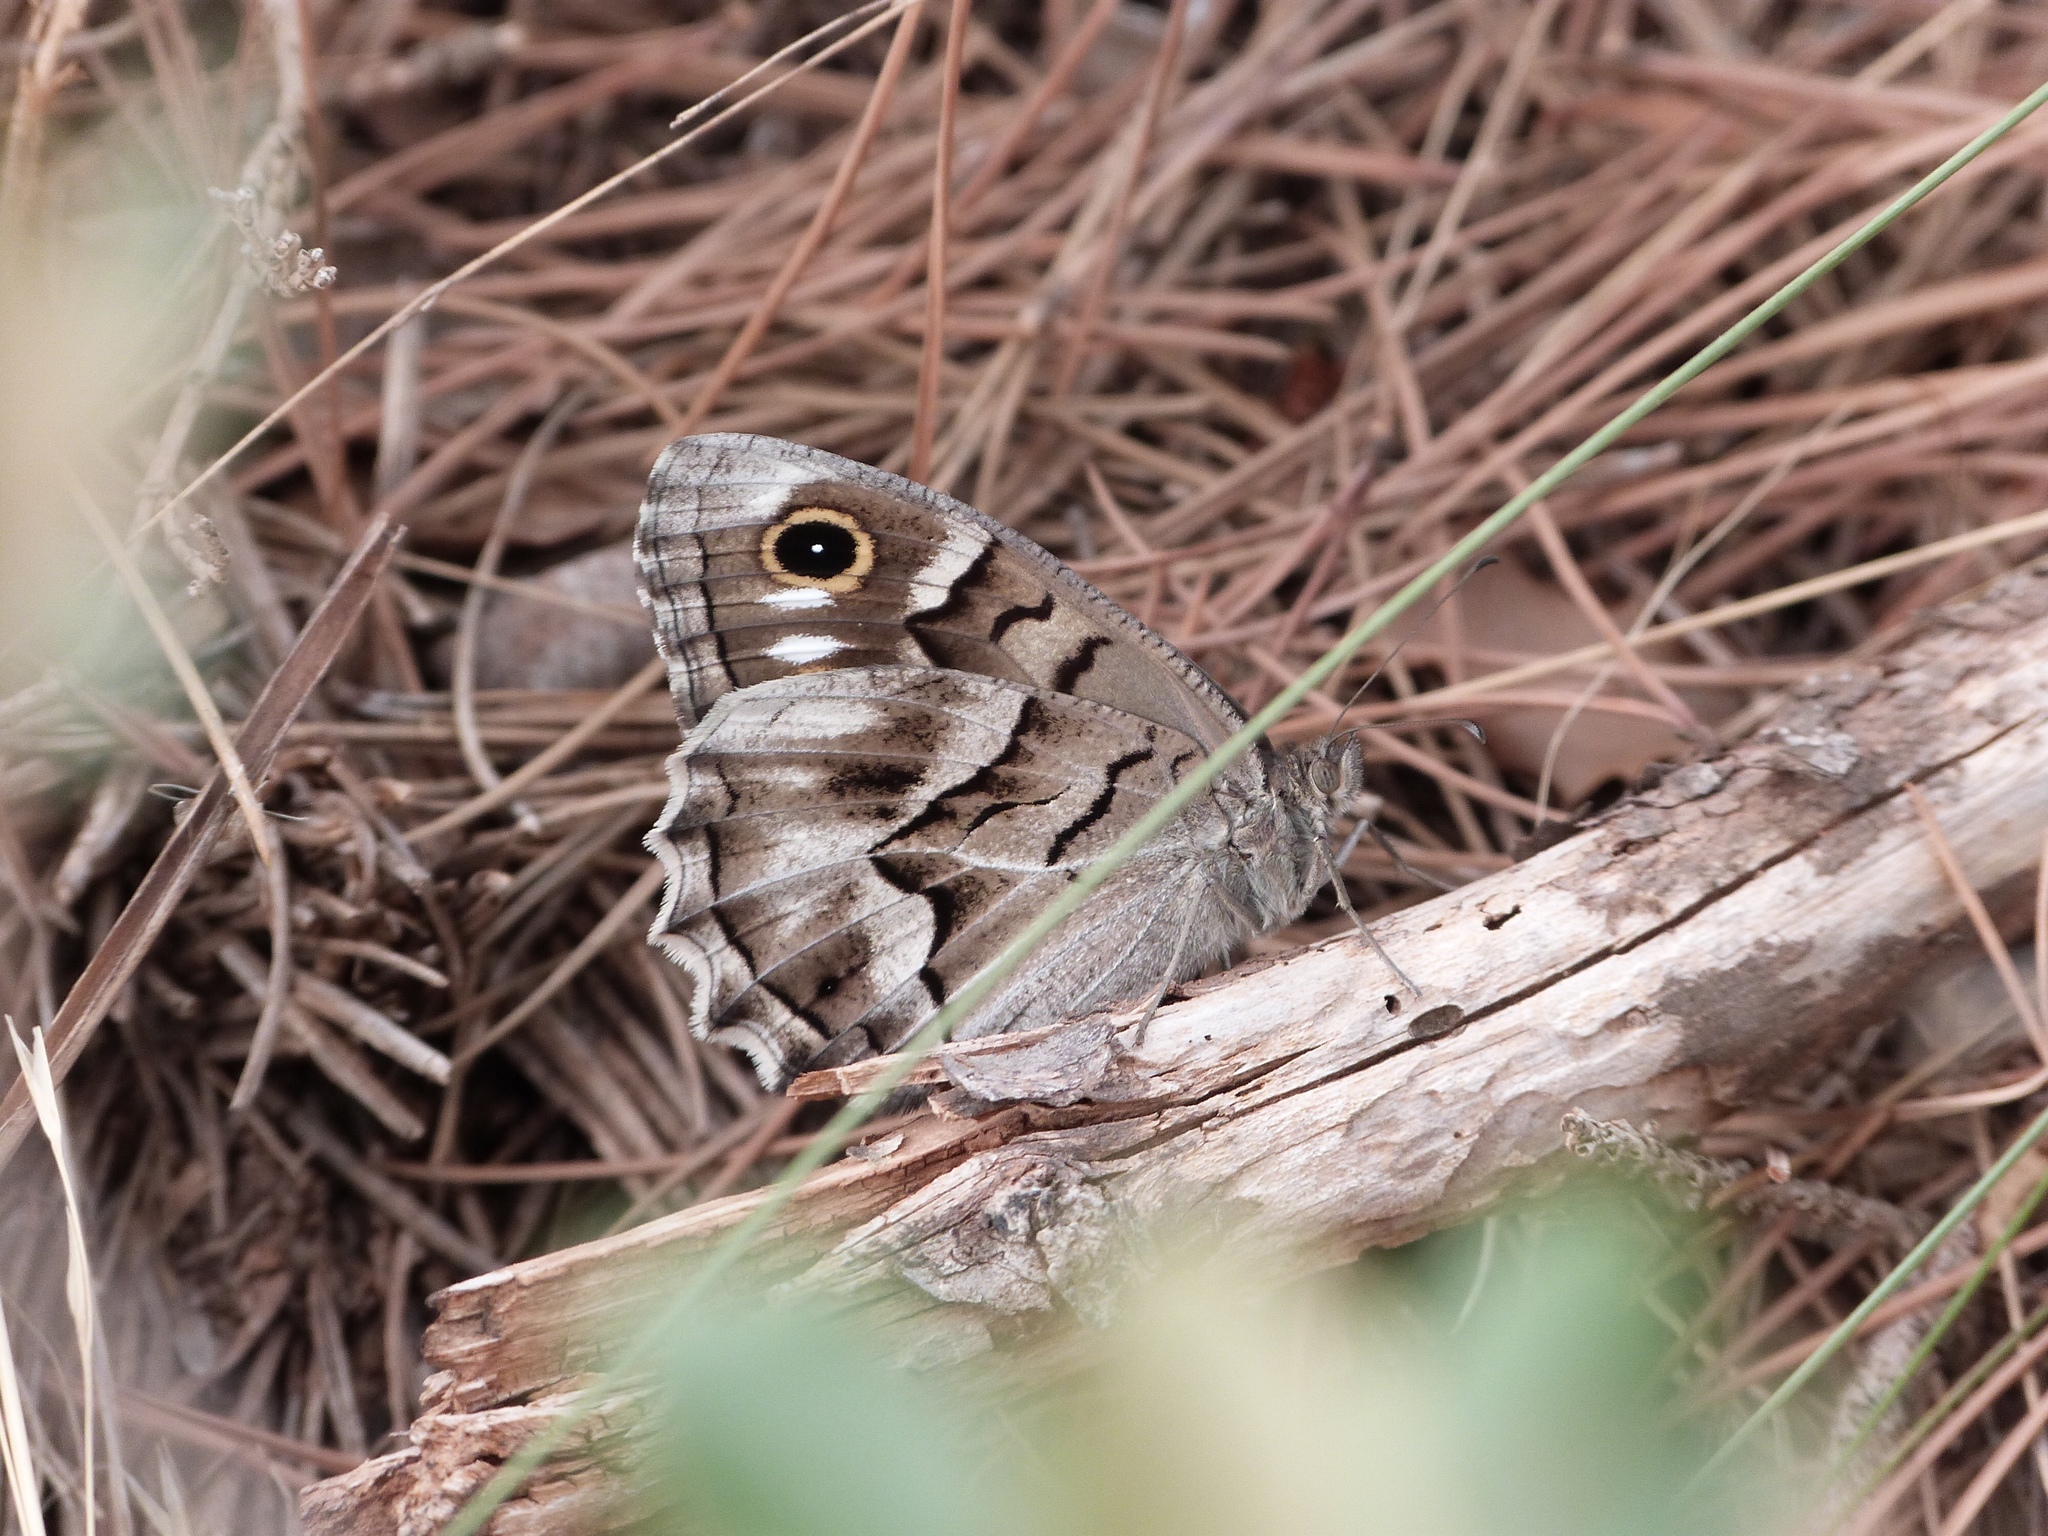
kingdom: Animalia
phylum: Arthropoda
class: Insecta
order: Lepidoptera
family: Nymphalidae
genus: Hipparchia
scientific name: Hipparchia fidia
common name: Striped grayling
